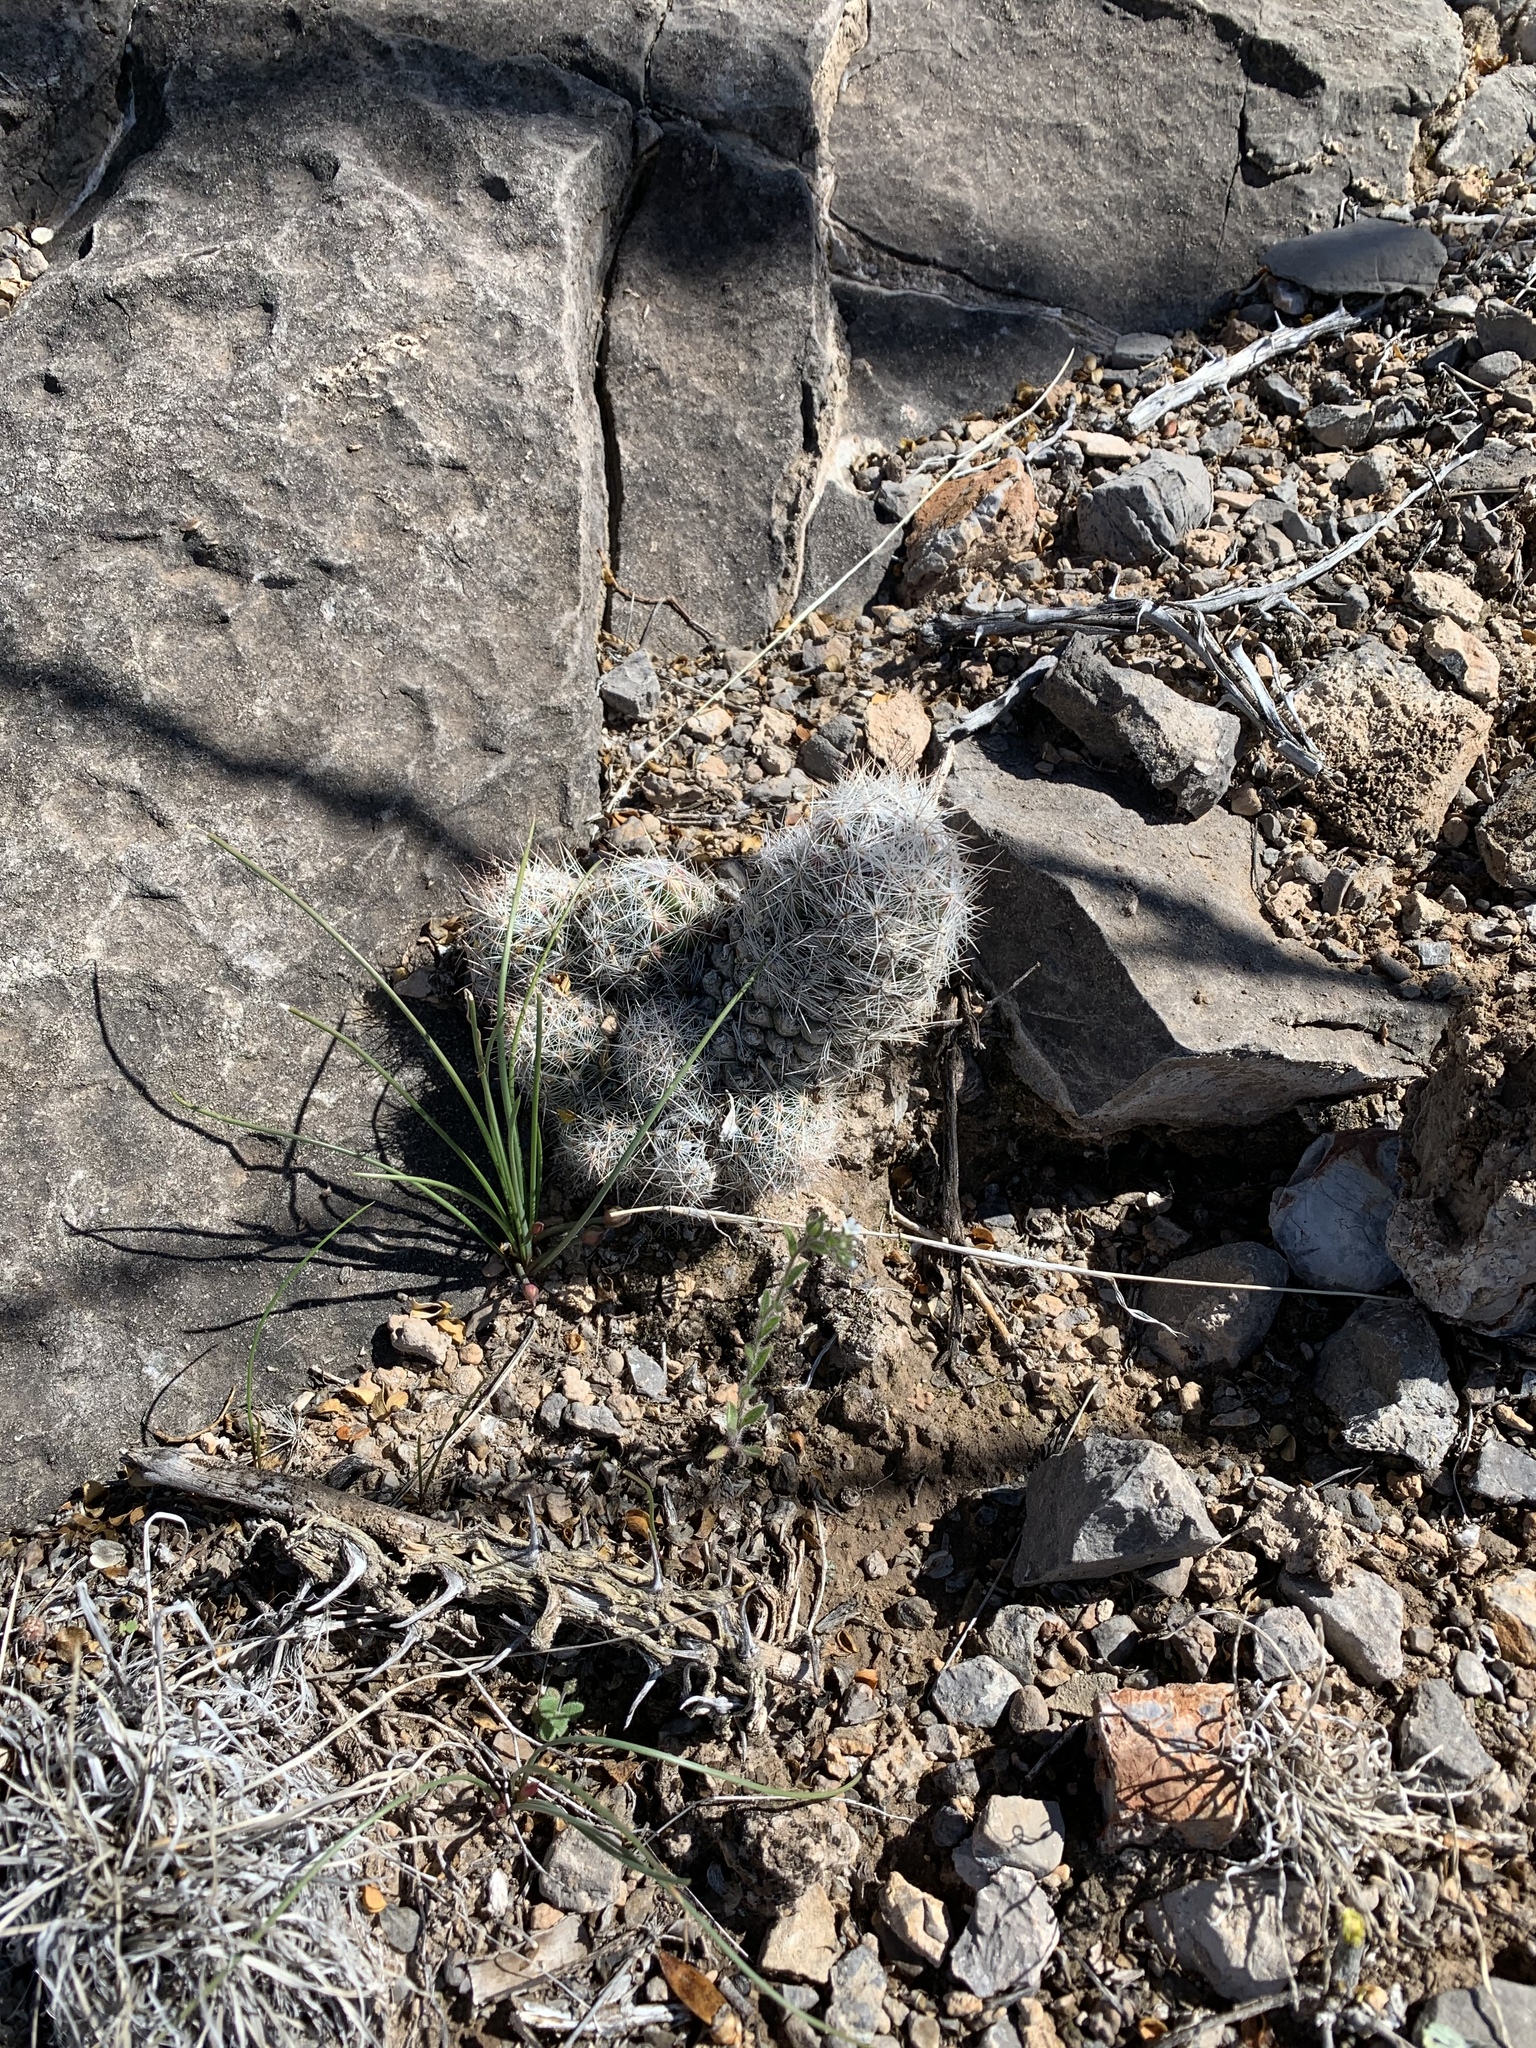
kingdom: Plantae
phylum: Tracheophyta
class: Magnoliopsida
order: Caryophyllales
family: Cactaceae
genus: Pelecyphora
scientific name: Pelecyphora tuberculosa
